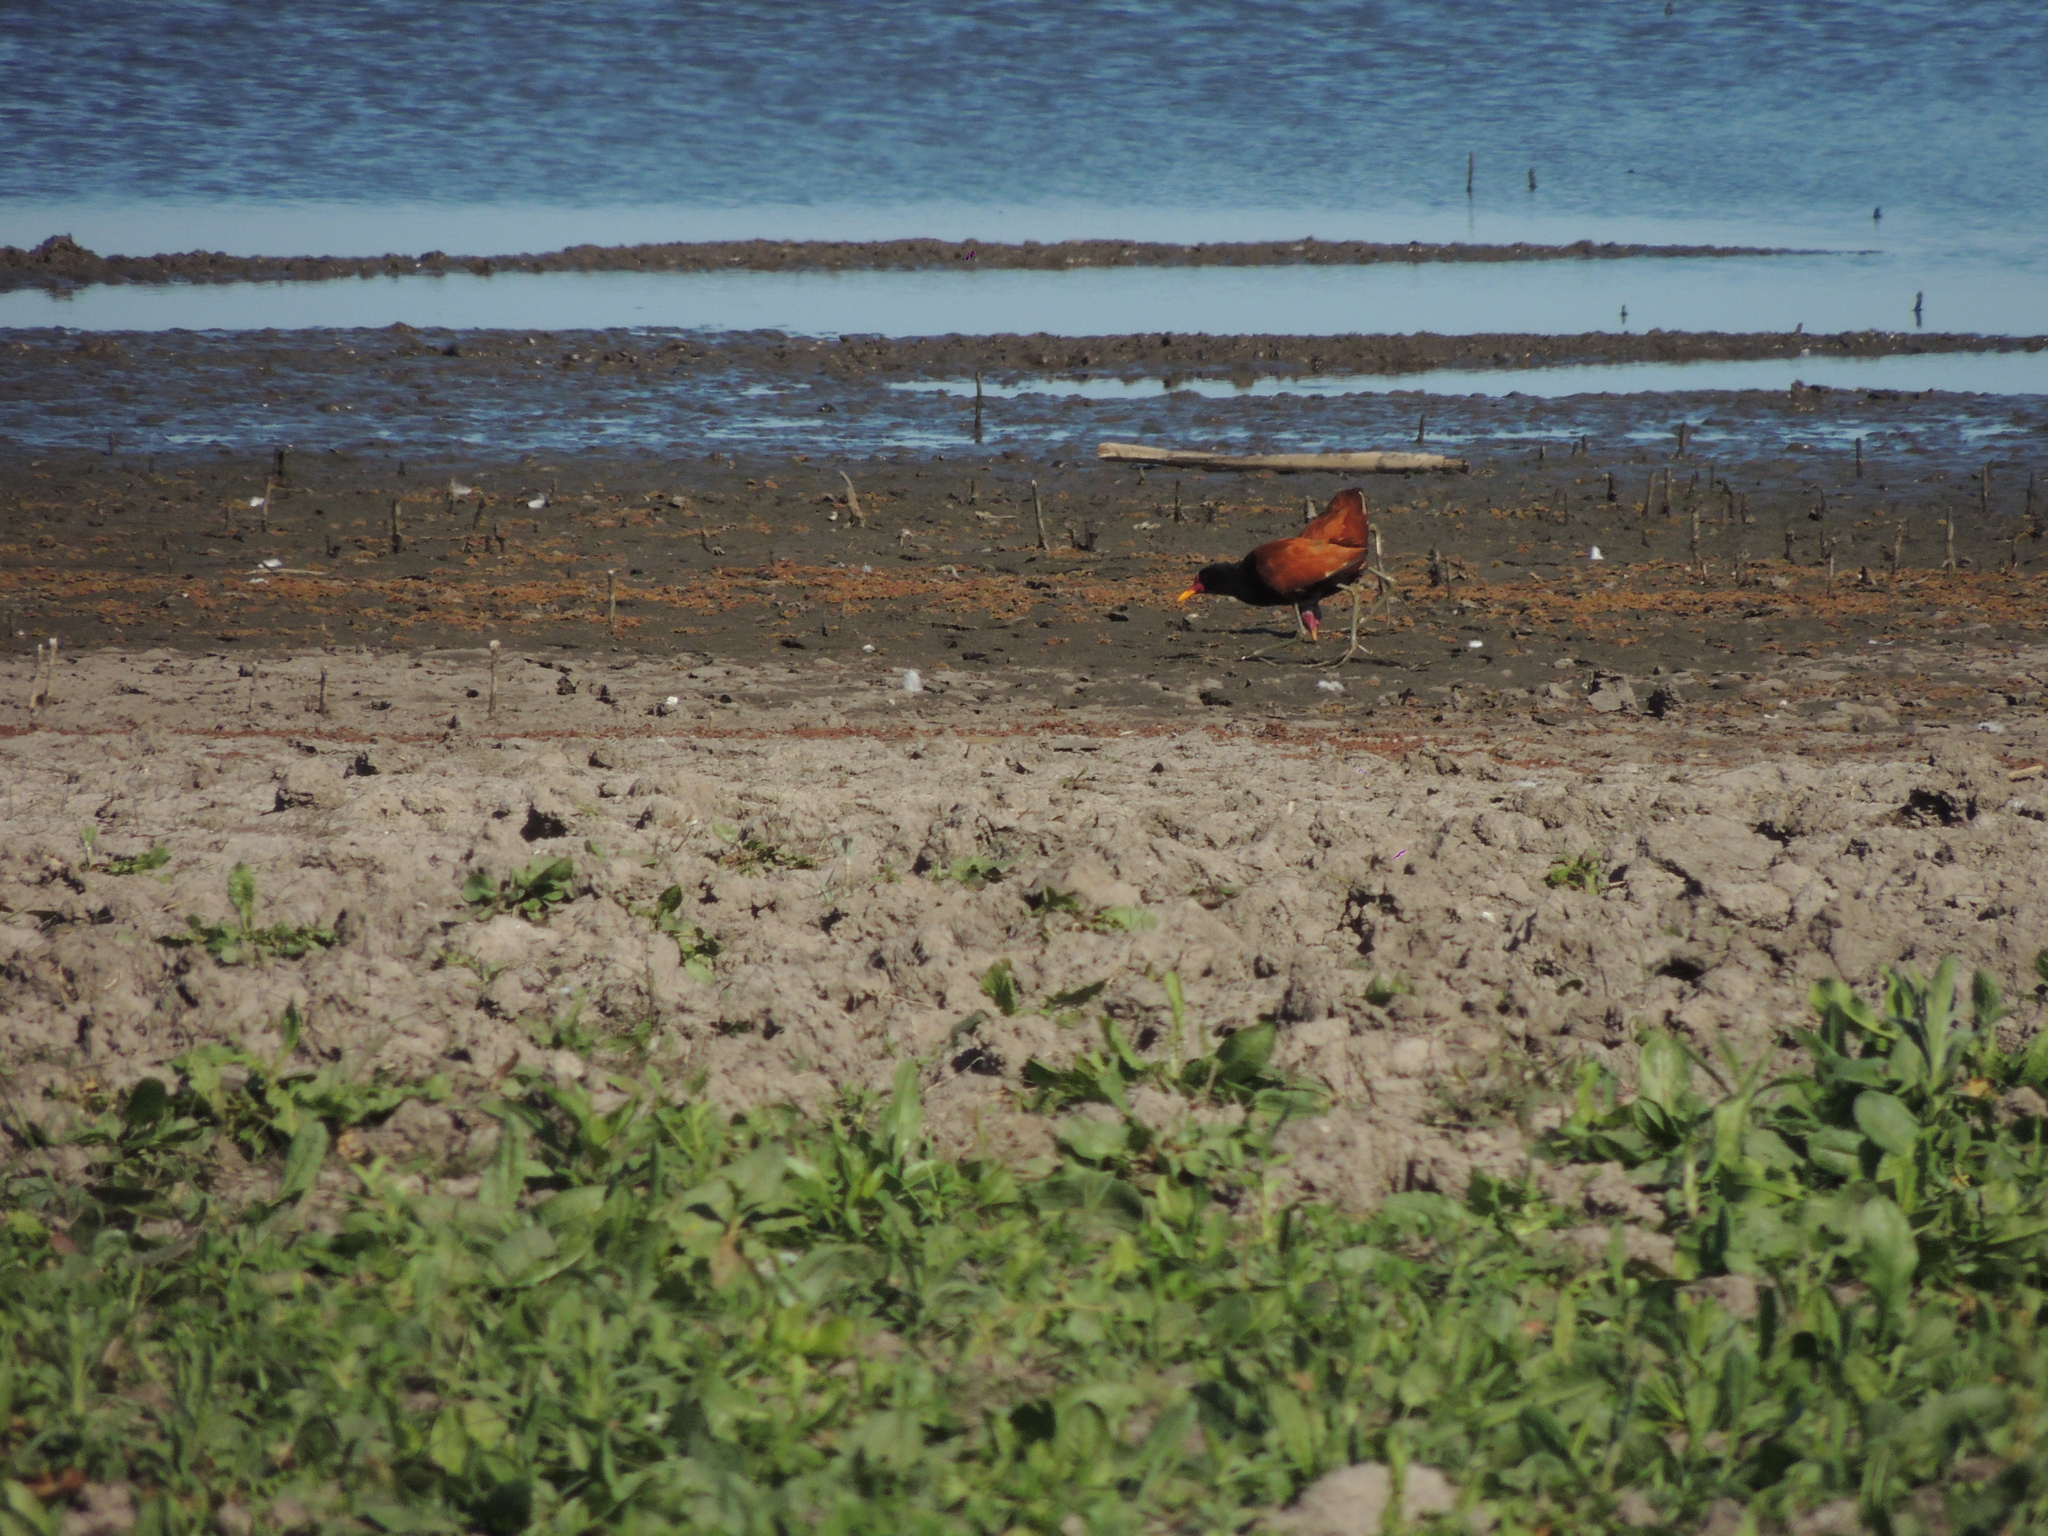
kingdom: Animalia
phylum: Chordata
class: Aves
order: Charadriiformes
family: Jacanidae
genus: Jacana
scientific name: Jacana jacana
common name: Wattled jacana
